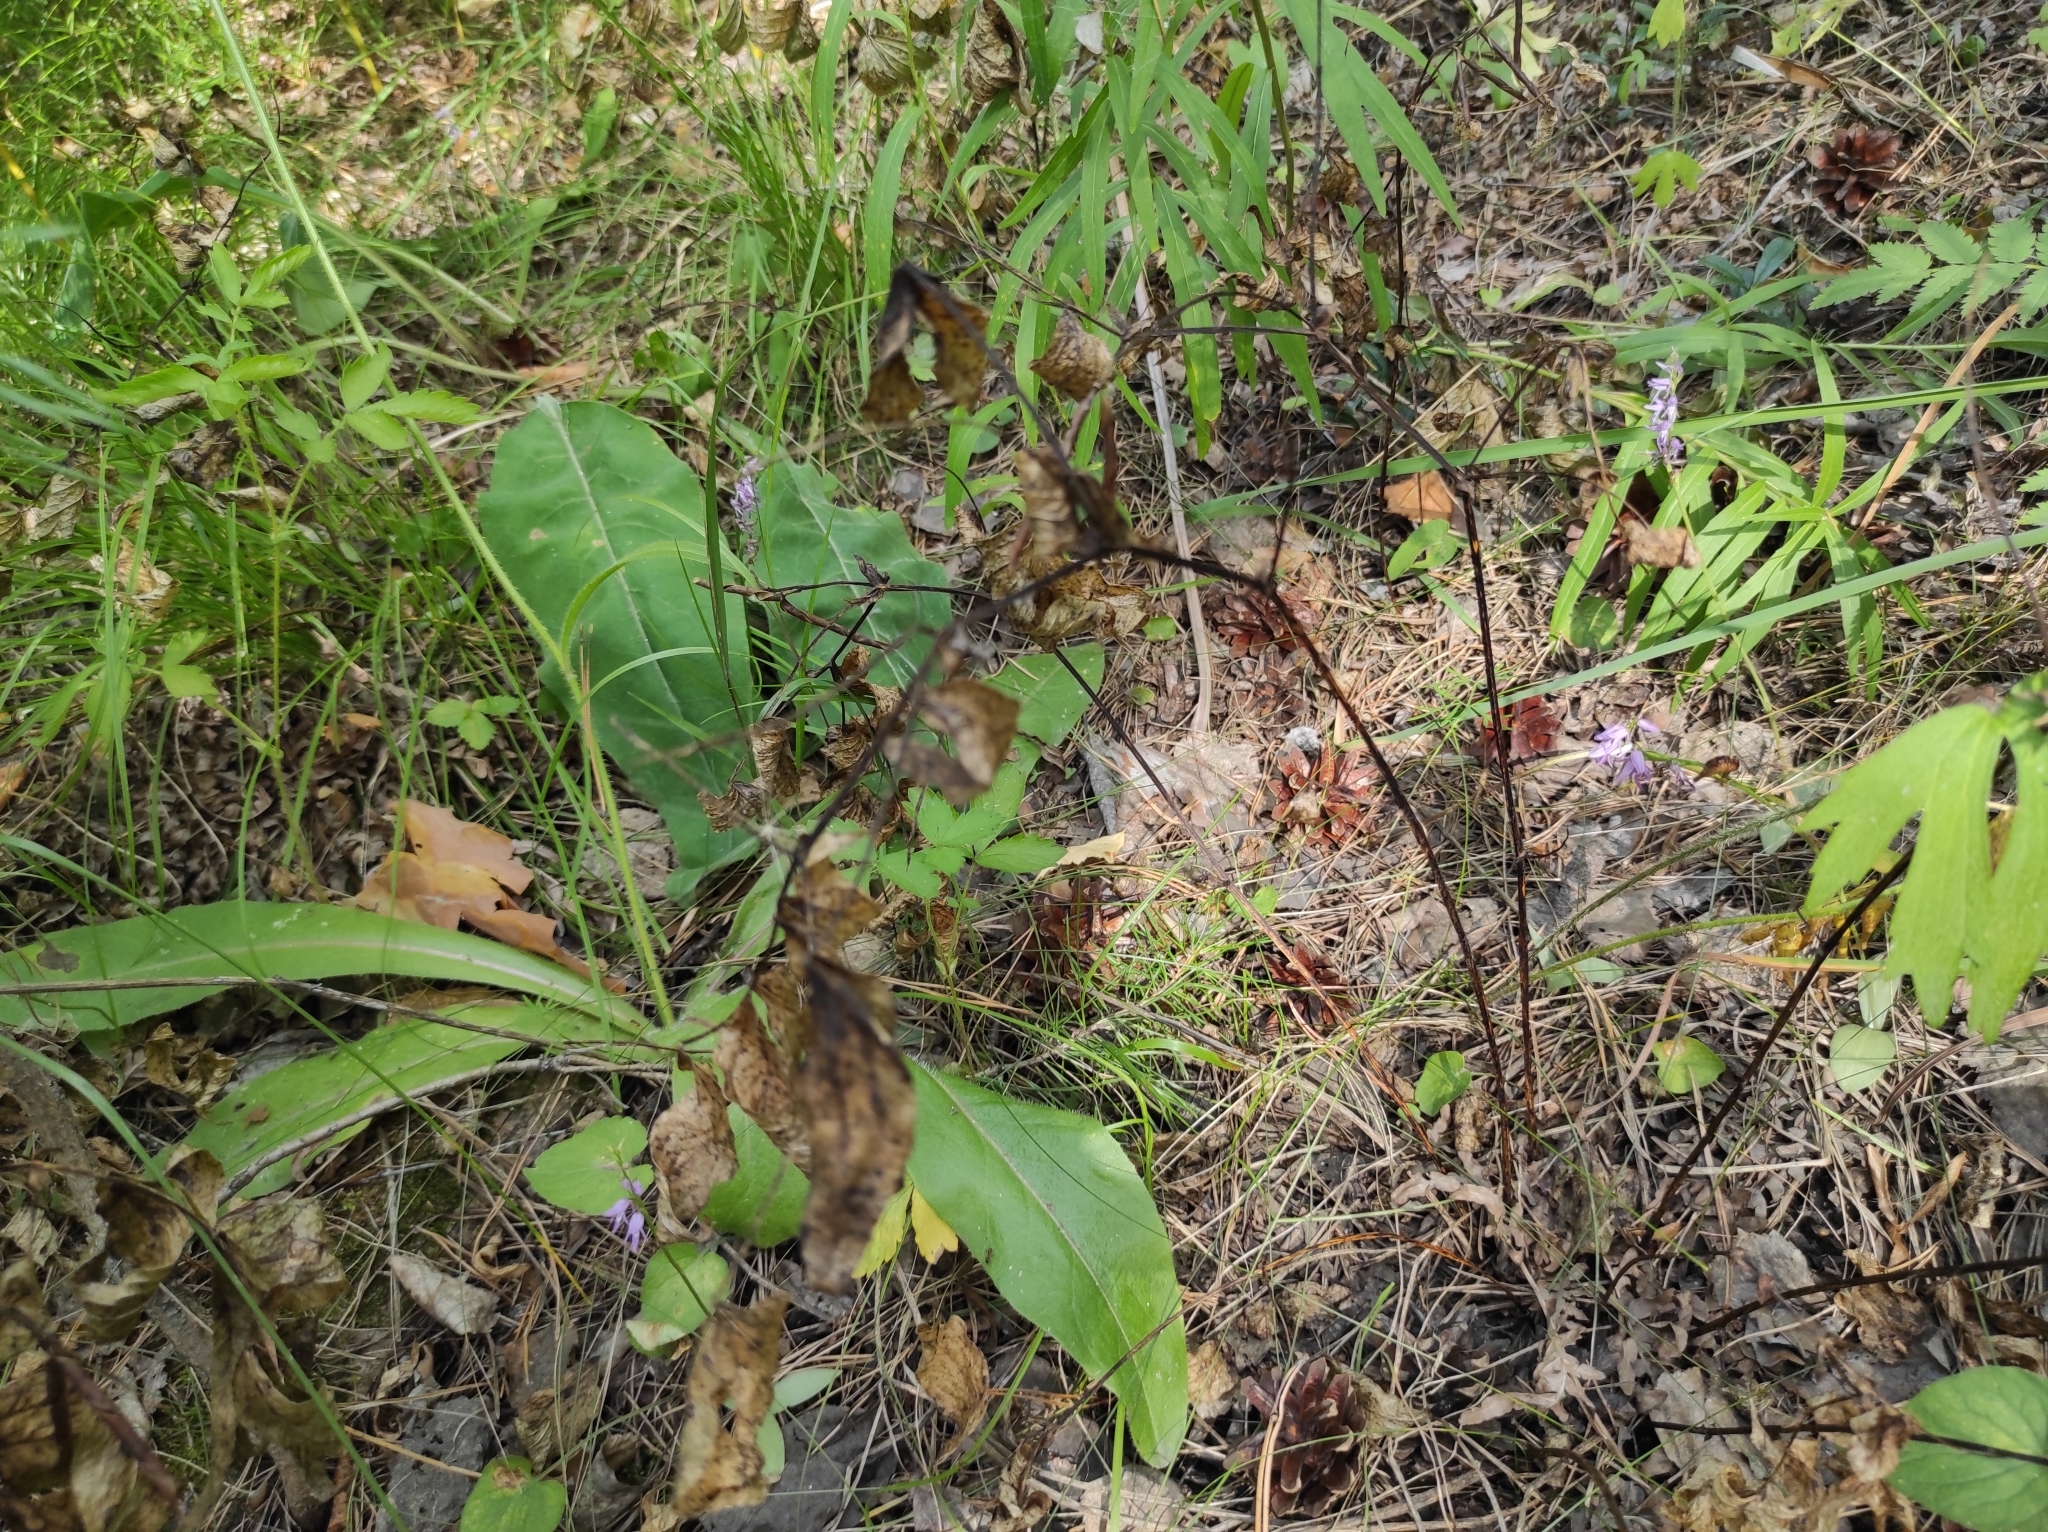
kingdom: Plantae
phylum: Tracheophyta
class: Liliopsida
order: Asparagales
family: Orchidaceae
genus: Hemipilia
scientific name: Hemipilia cucullata
